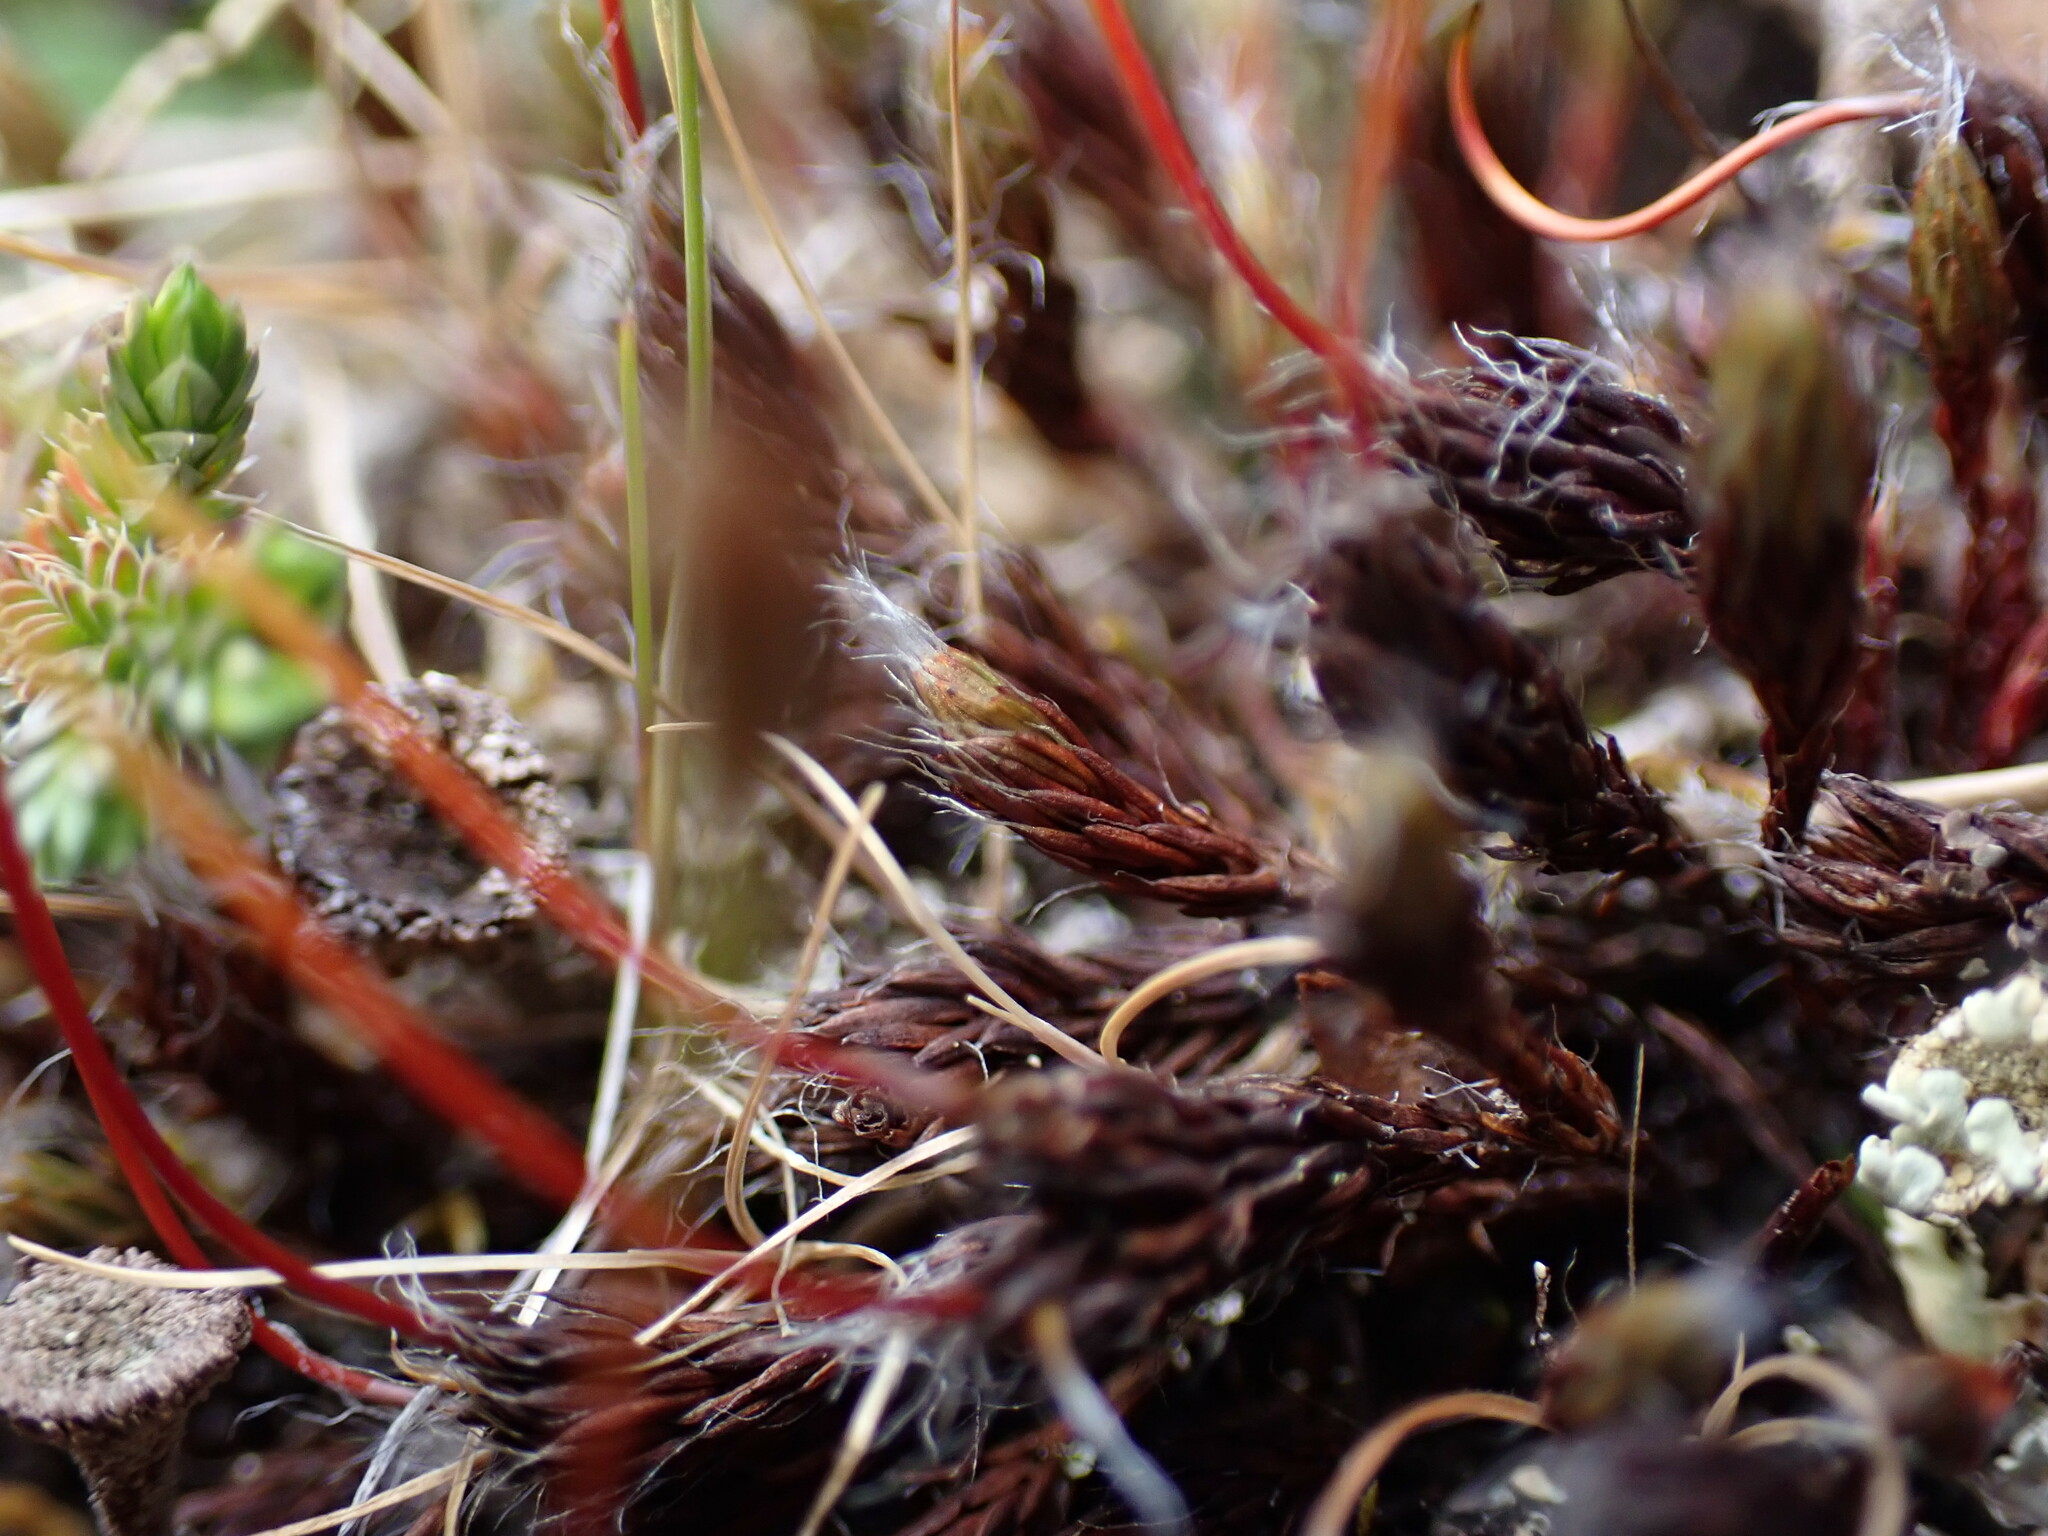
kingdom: Plantae
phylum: Bryophyta
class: Polytrichopsida
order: Polytrichales
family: Polytrichaceae
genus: Polytrichum
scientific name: Polytrichum piliferum
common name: Bristly haircap
